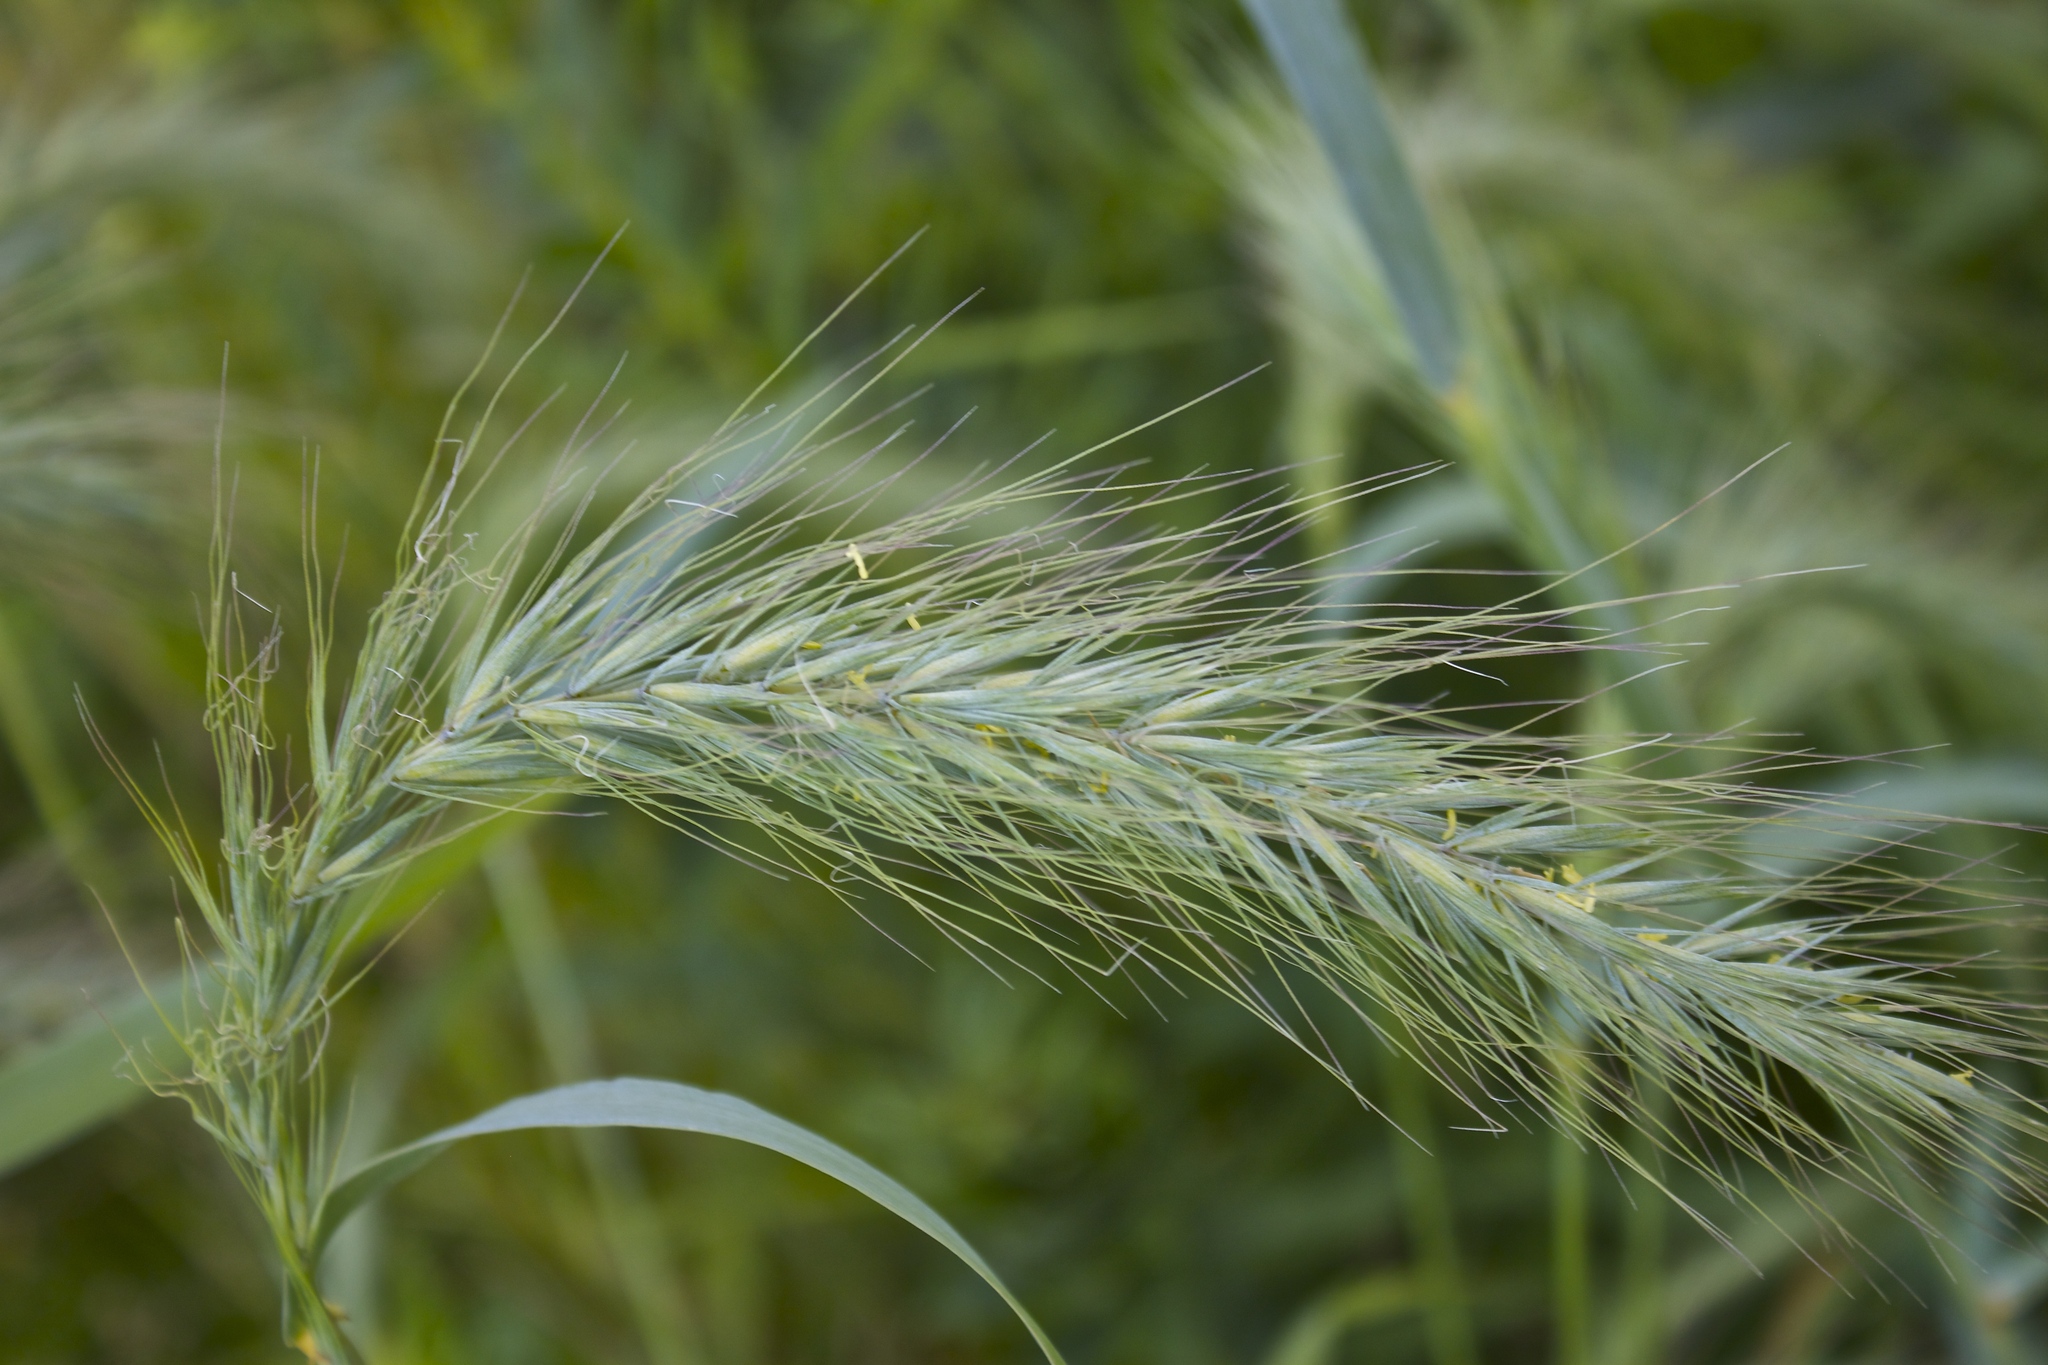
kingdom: Plantae
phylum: Tracheophyta
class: Liliopsida
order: Poales
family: Poaceae
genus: Elymus
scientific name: Elymus canadensis
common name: Canada wild rye
